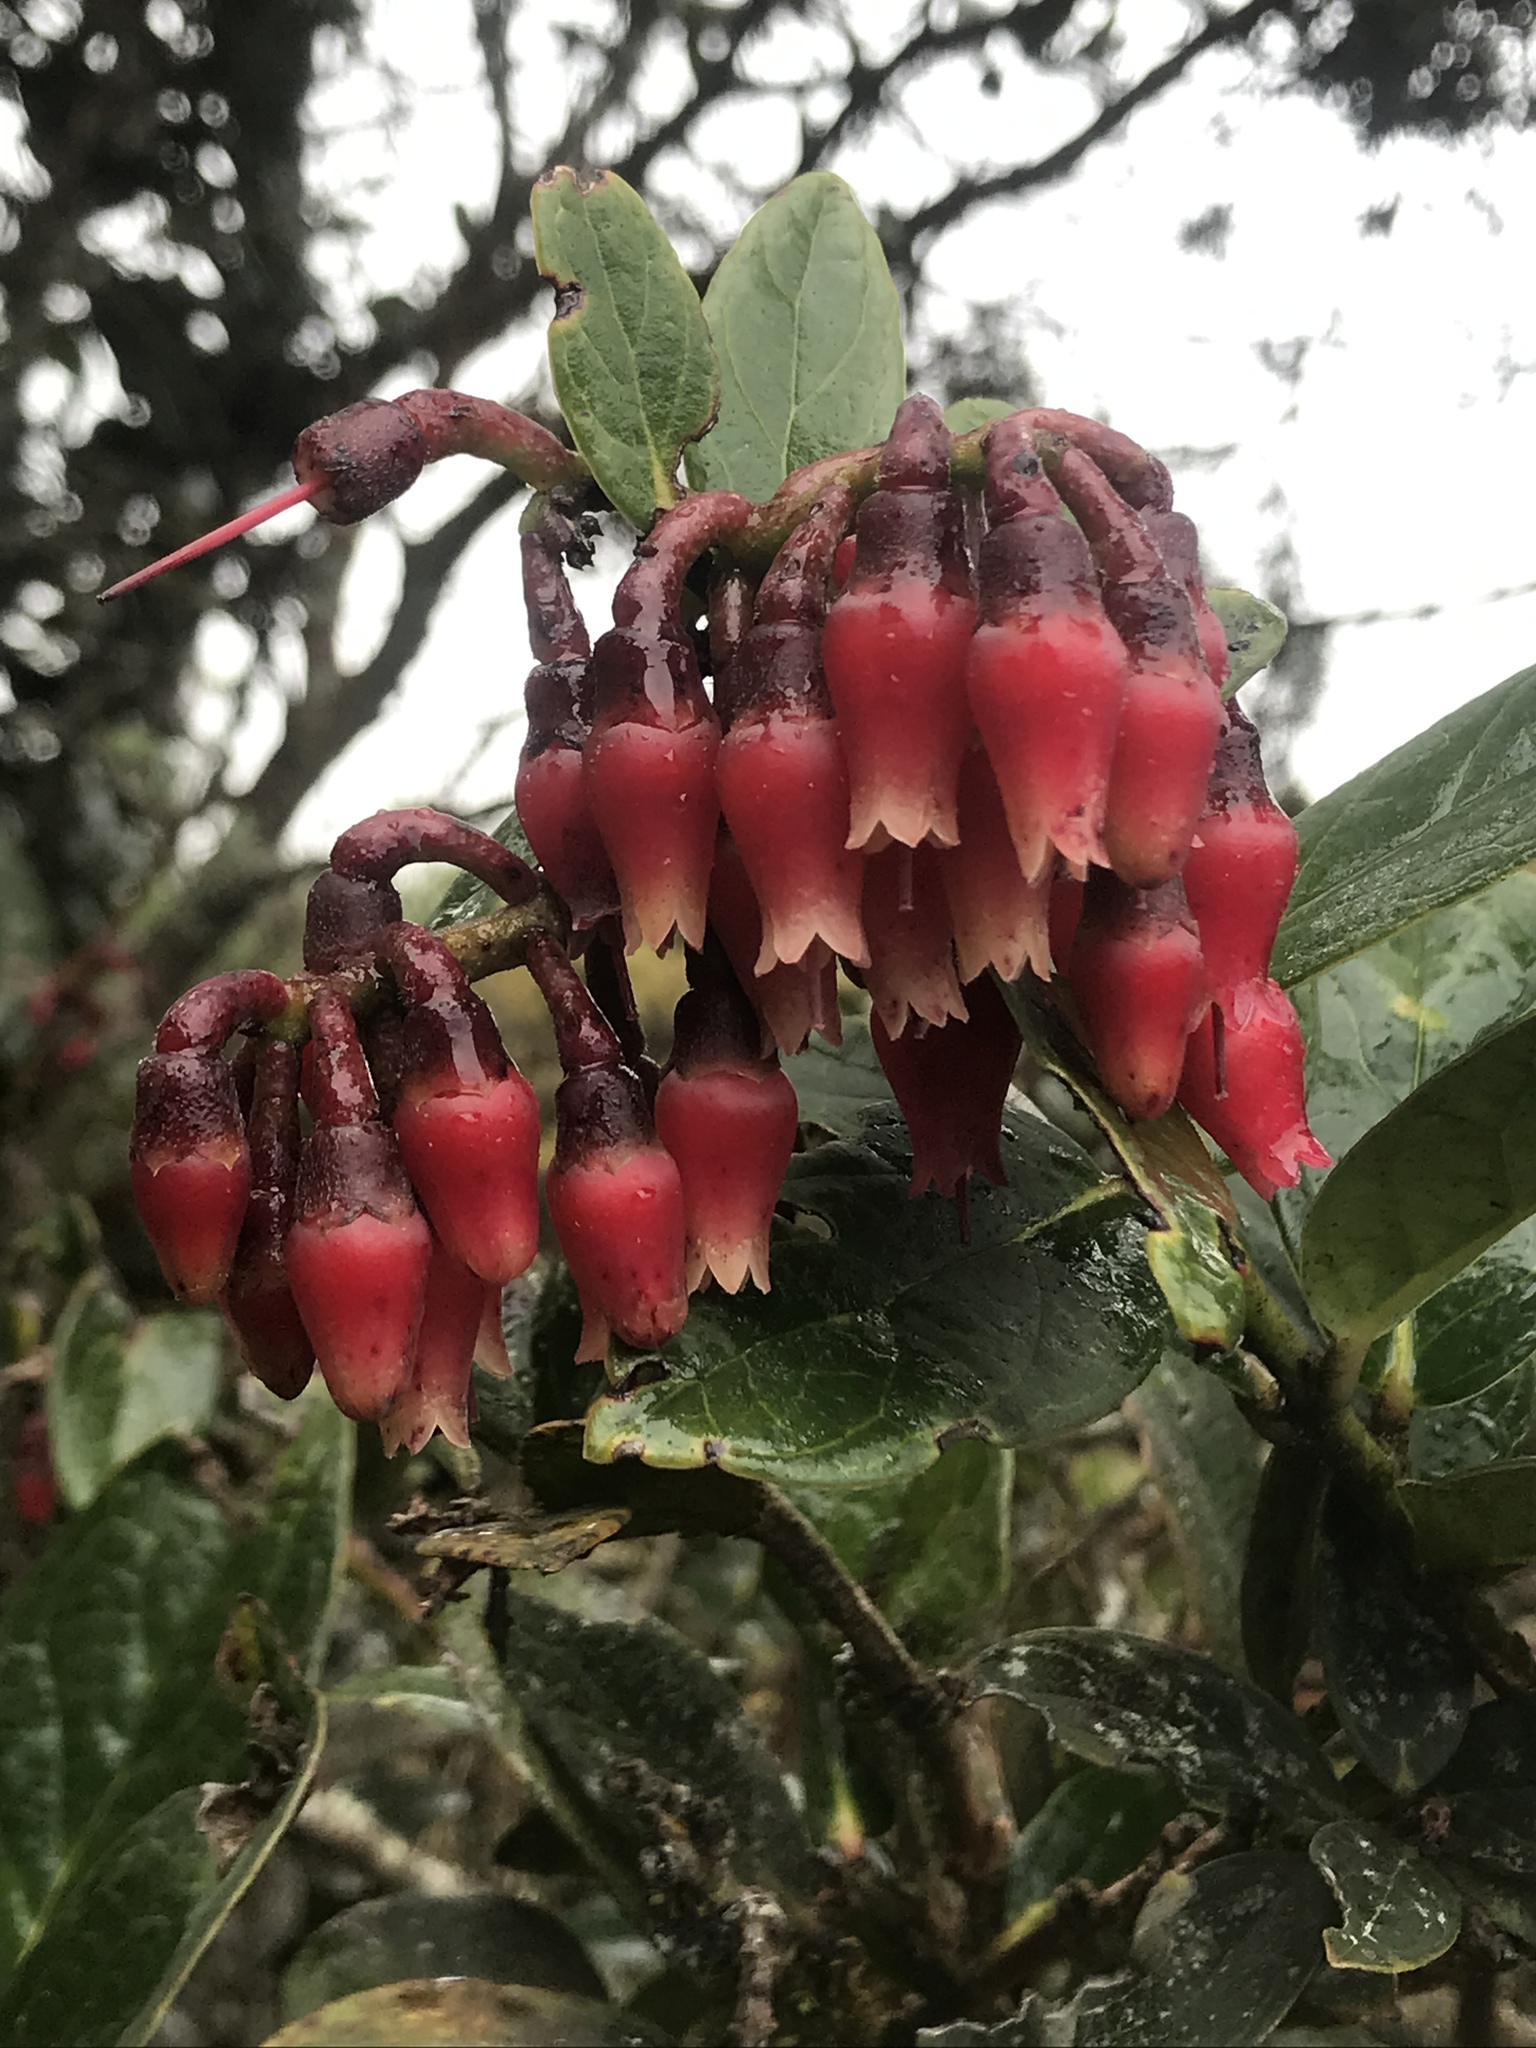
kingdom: Plantae
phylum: Tracheophyta
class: Magnoliopsida
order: Ericales
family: Ericaceae
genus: Macleania
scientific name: Macleania rupestris
